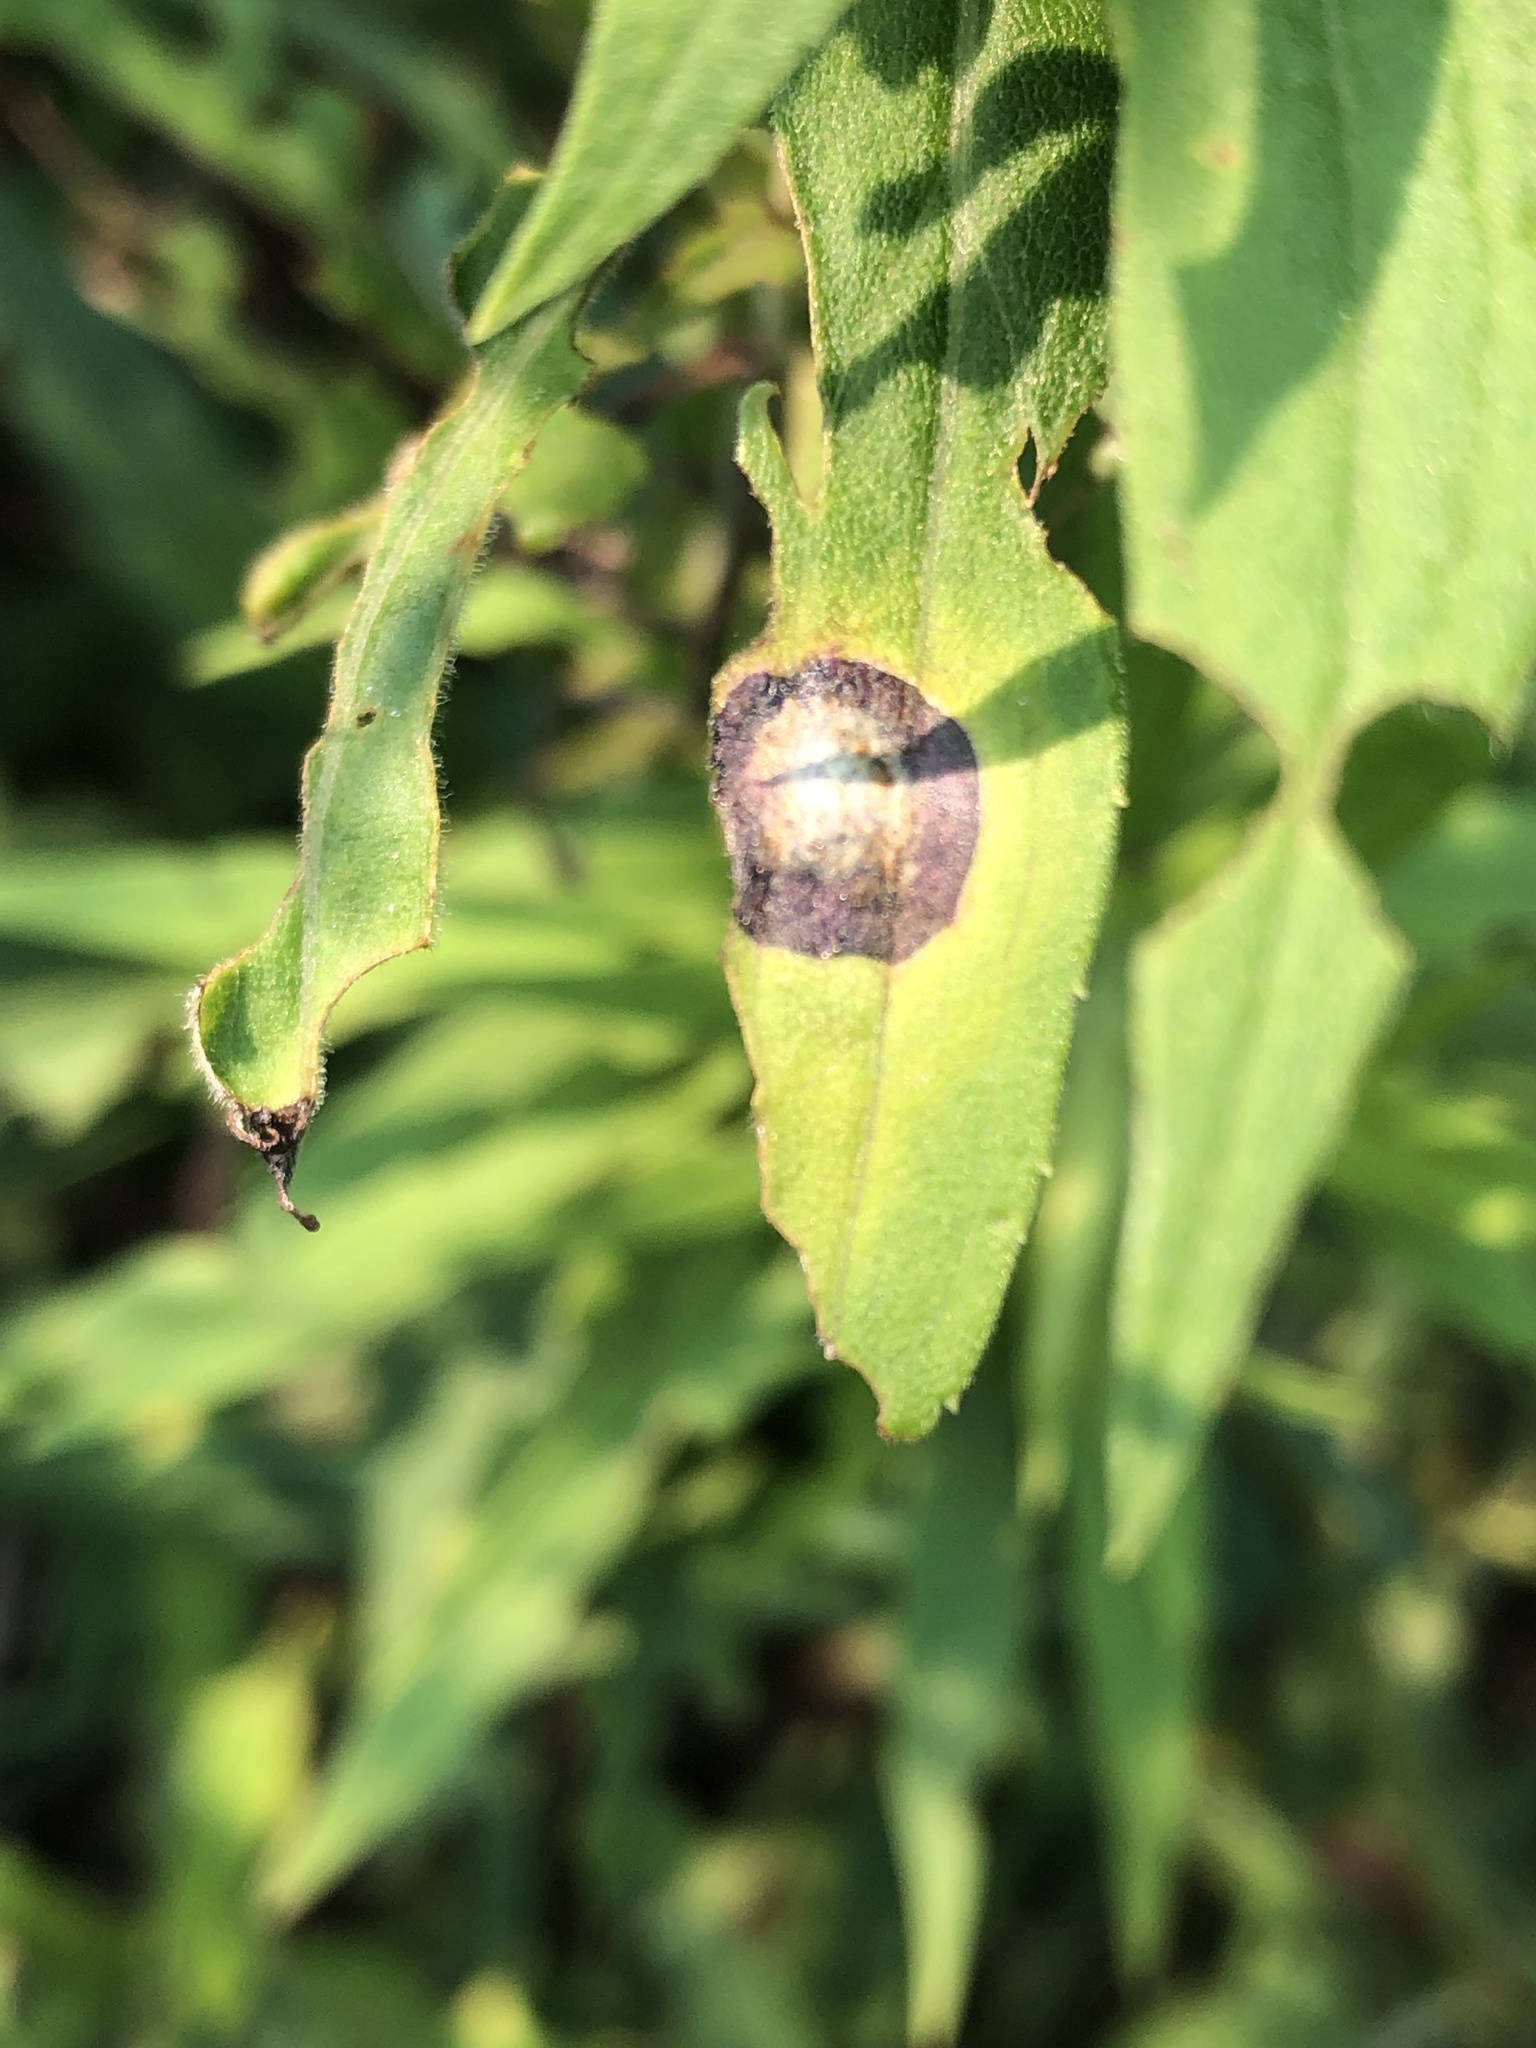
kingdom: Animalia
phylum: Arthropoda
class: Insecta
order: Diptera
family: Cecidomyiidae
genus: Asteromyia
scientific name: Asteromyia carbonifera
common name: Carbonifera goldenrod gall midge
